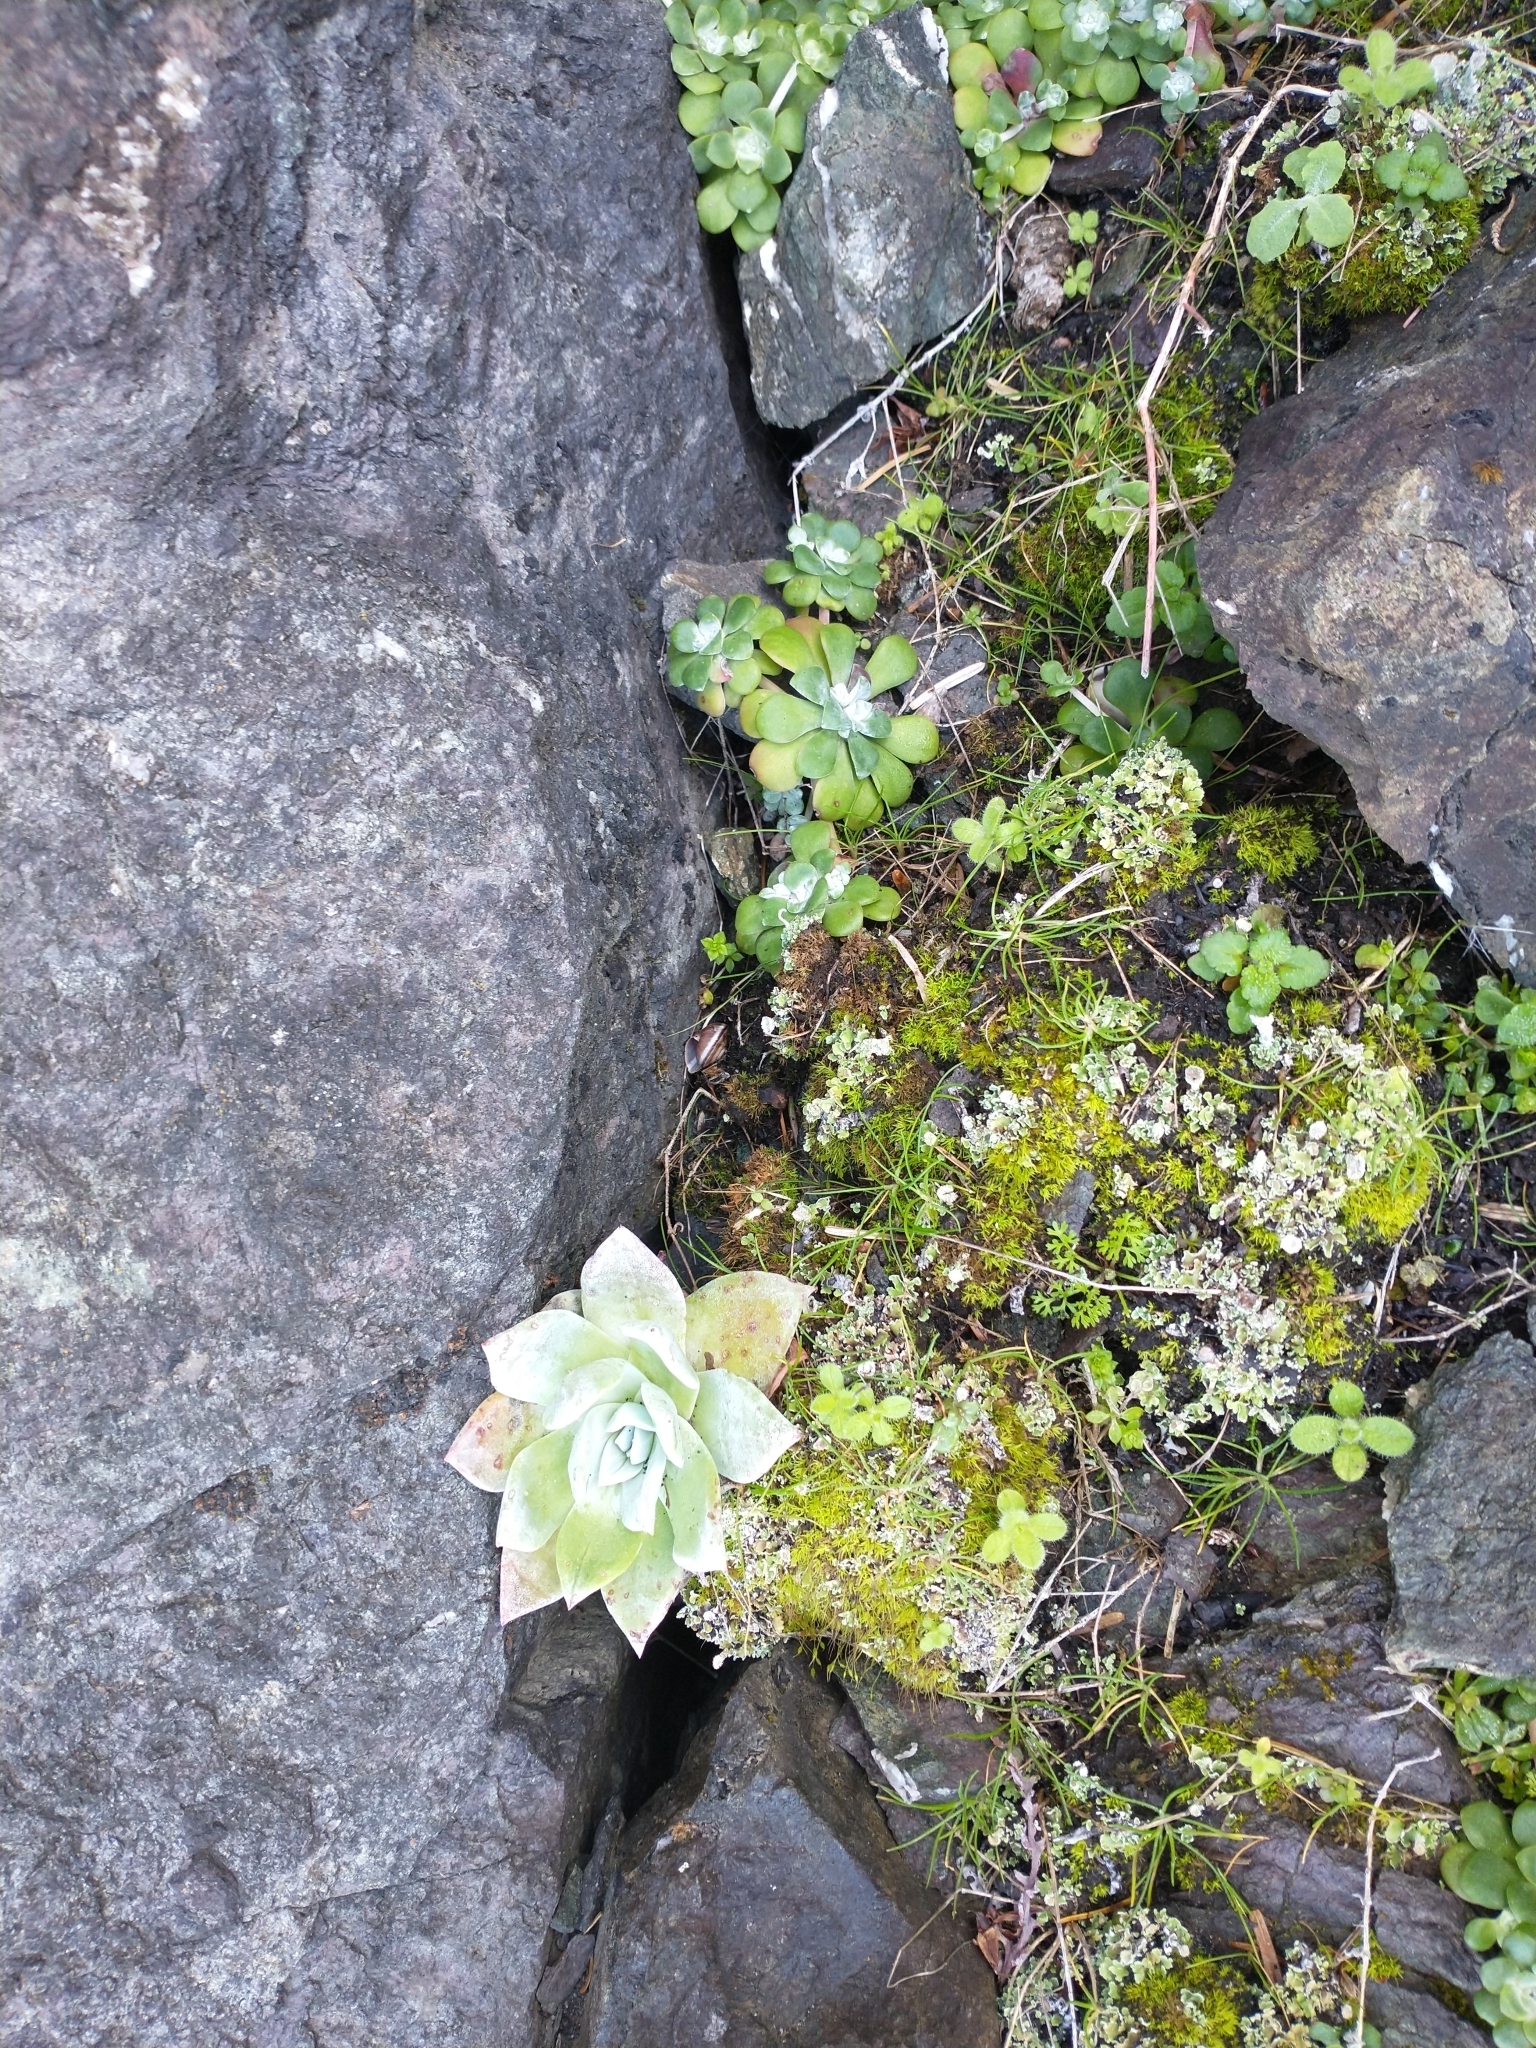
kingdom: Plantae
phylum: Tracheophyta
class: Magnoliopsida
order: Saxifragales
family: Crassulaceae
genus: Sedum
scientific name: Sedum spathulifolium
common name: Colorado stonecrop
